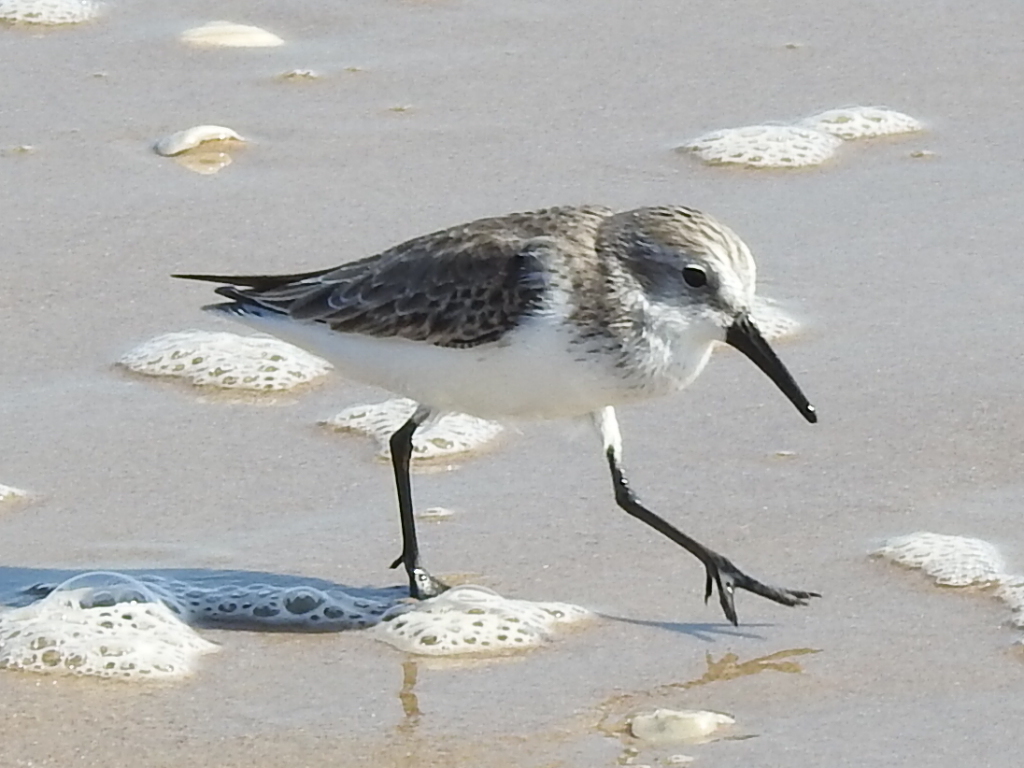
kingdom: Animalia
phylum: Chordata
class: Aves
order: Charadriiformes
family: Scolopacidae
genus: Calidris
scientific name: Calidris mauri
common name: Western sandpiper
